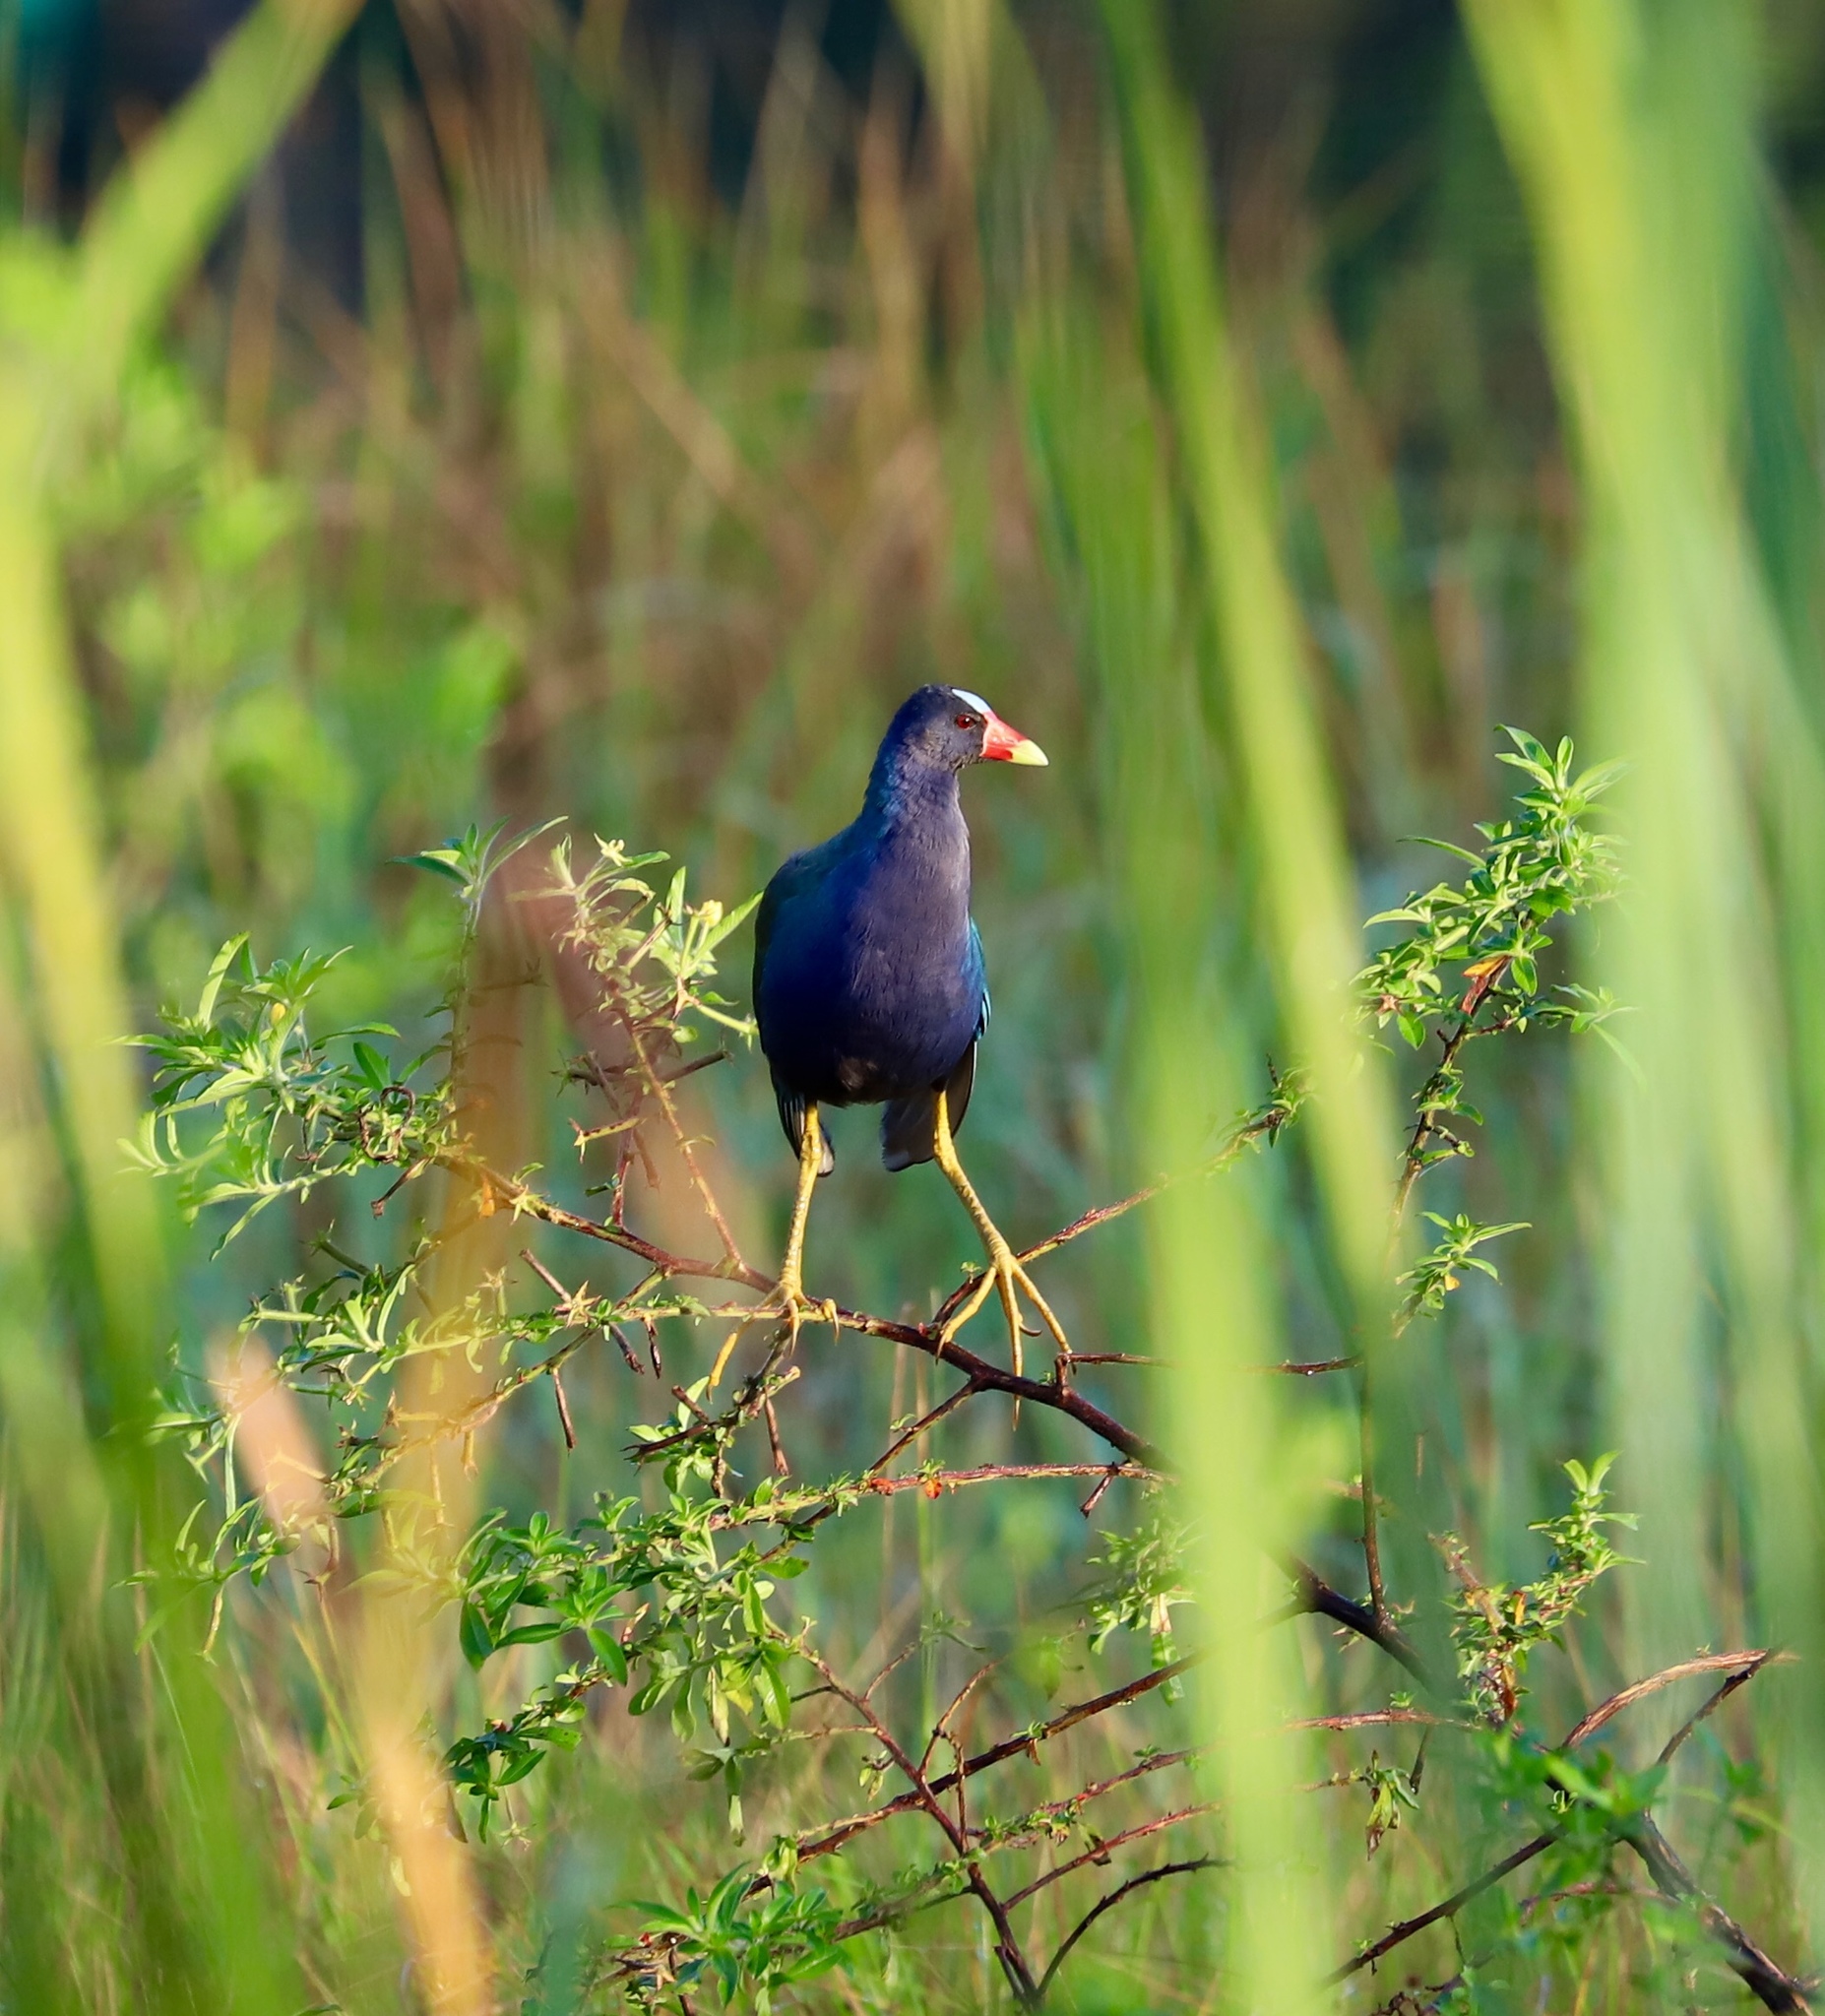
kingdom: Animalia
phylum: Chordata
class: Aves
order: Gruiformes
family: Rallidae
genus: Porphyrio
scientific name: Porphyrio martinica
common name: Purple gallinule
